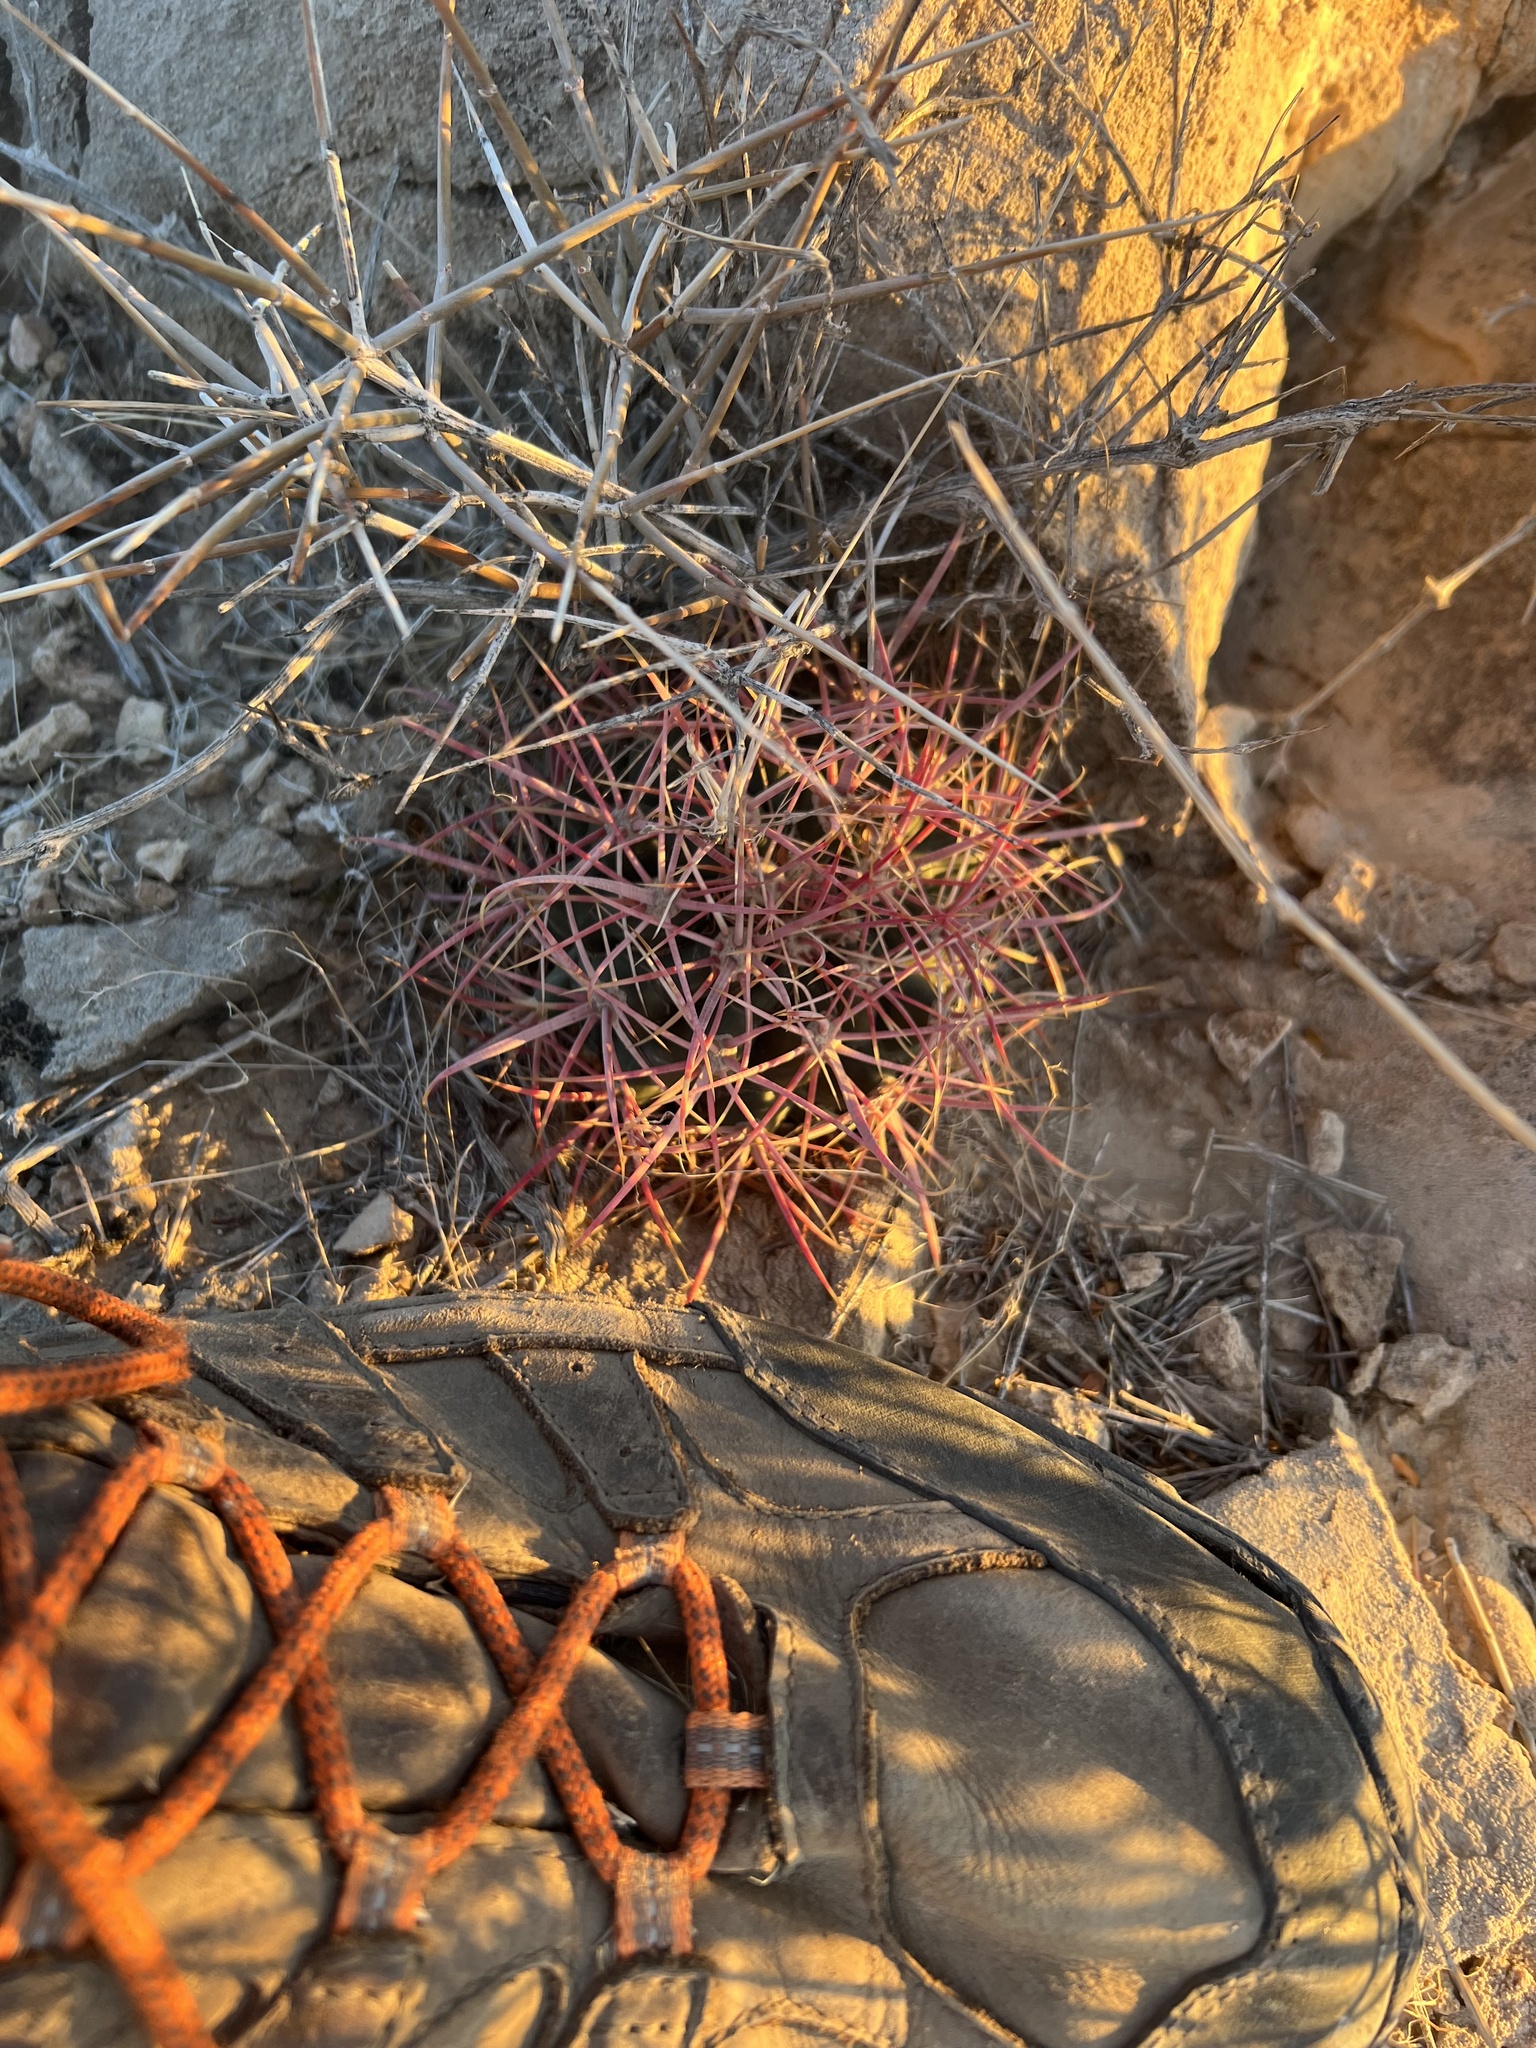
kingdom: Plantae
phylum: Tracheophyta
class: Magnoliopsida
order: Caryophyllales
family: Cactaceae
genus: Ferocactus
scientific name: Ferocactus cylindraceus
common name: California barrel cactus
